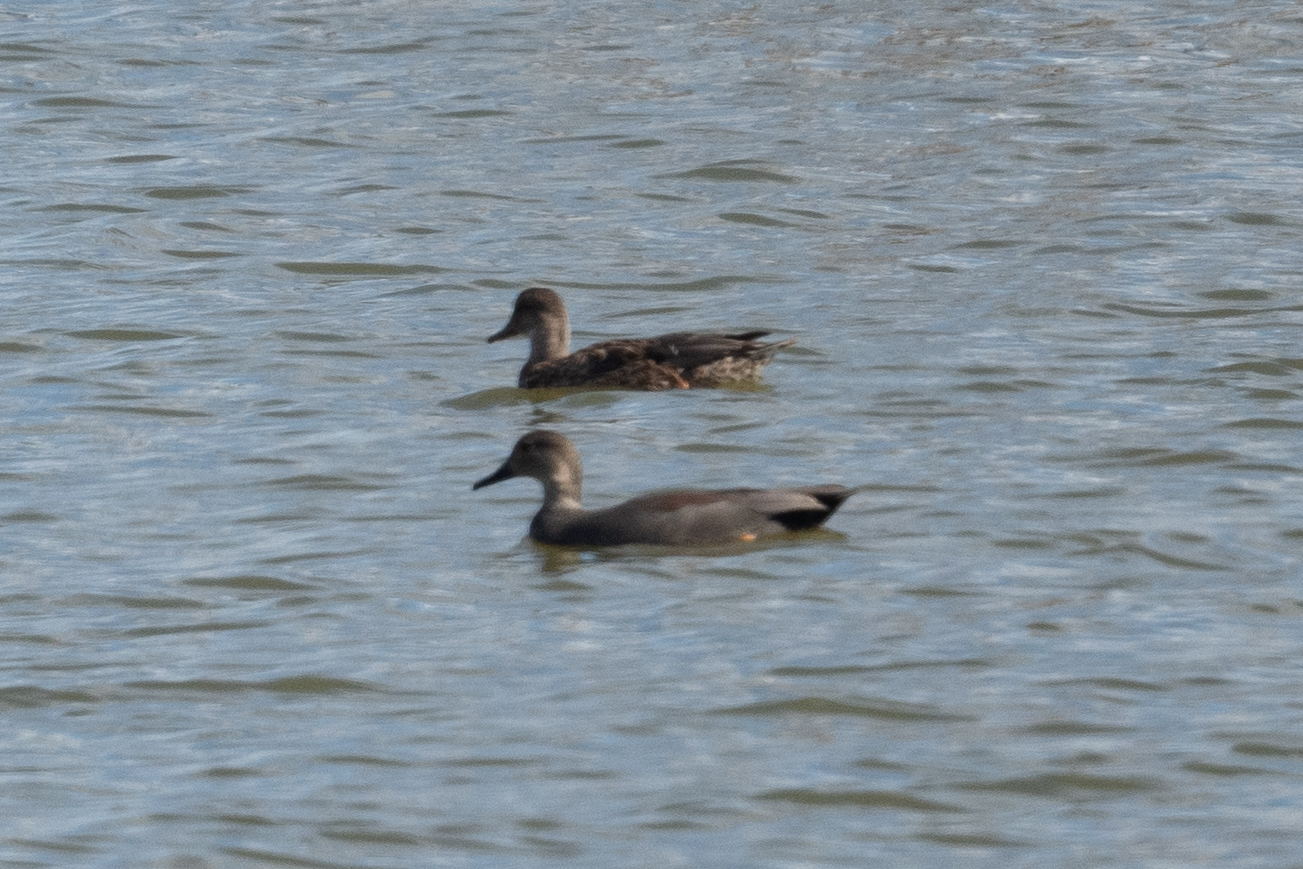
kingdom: Animalia
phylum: Chordata
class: Aves
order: Anseriformes
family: Anatidae
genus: Mareca
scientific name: Mareca strepera
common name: Gadwall
